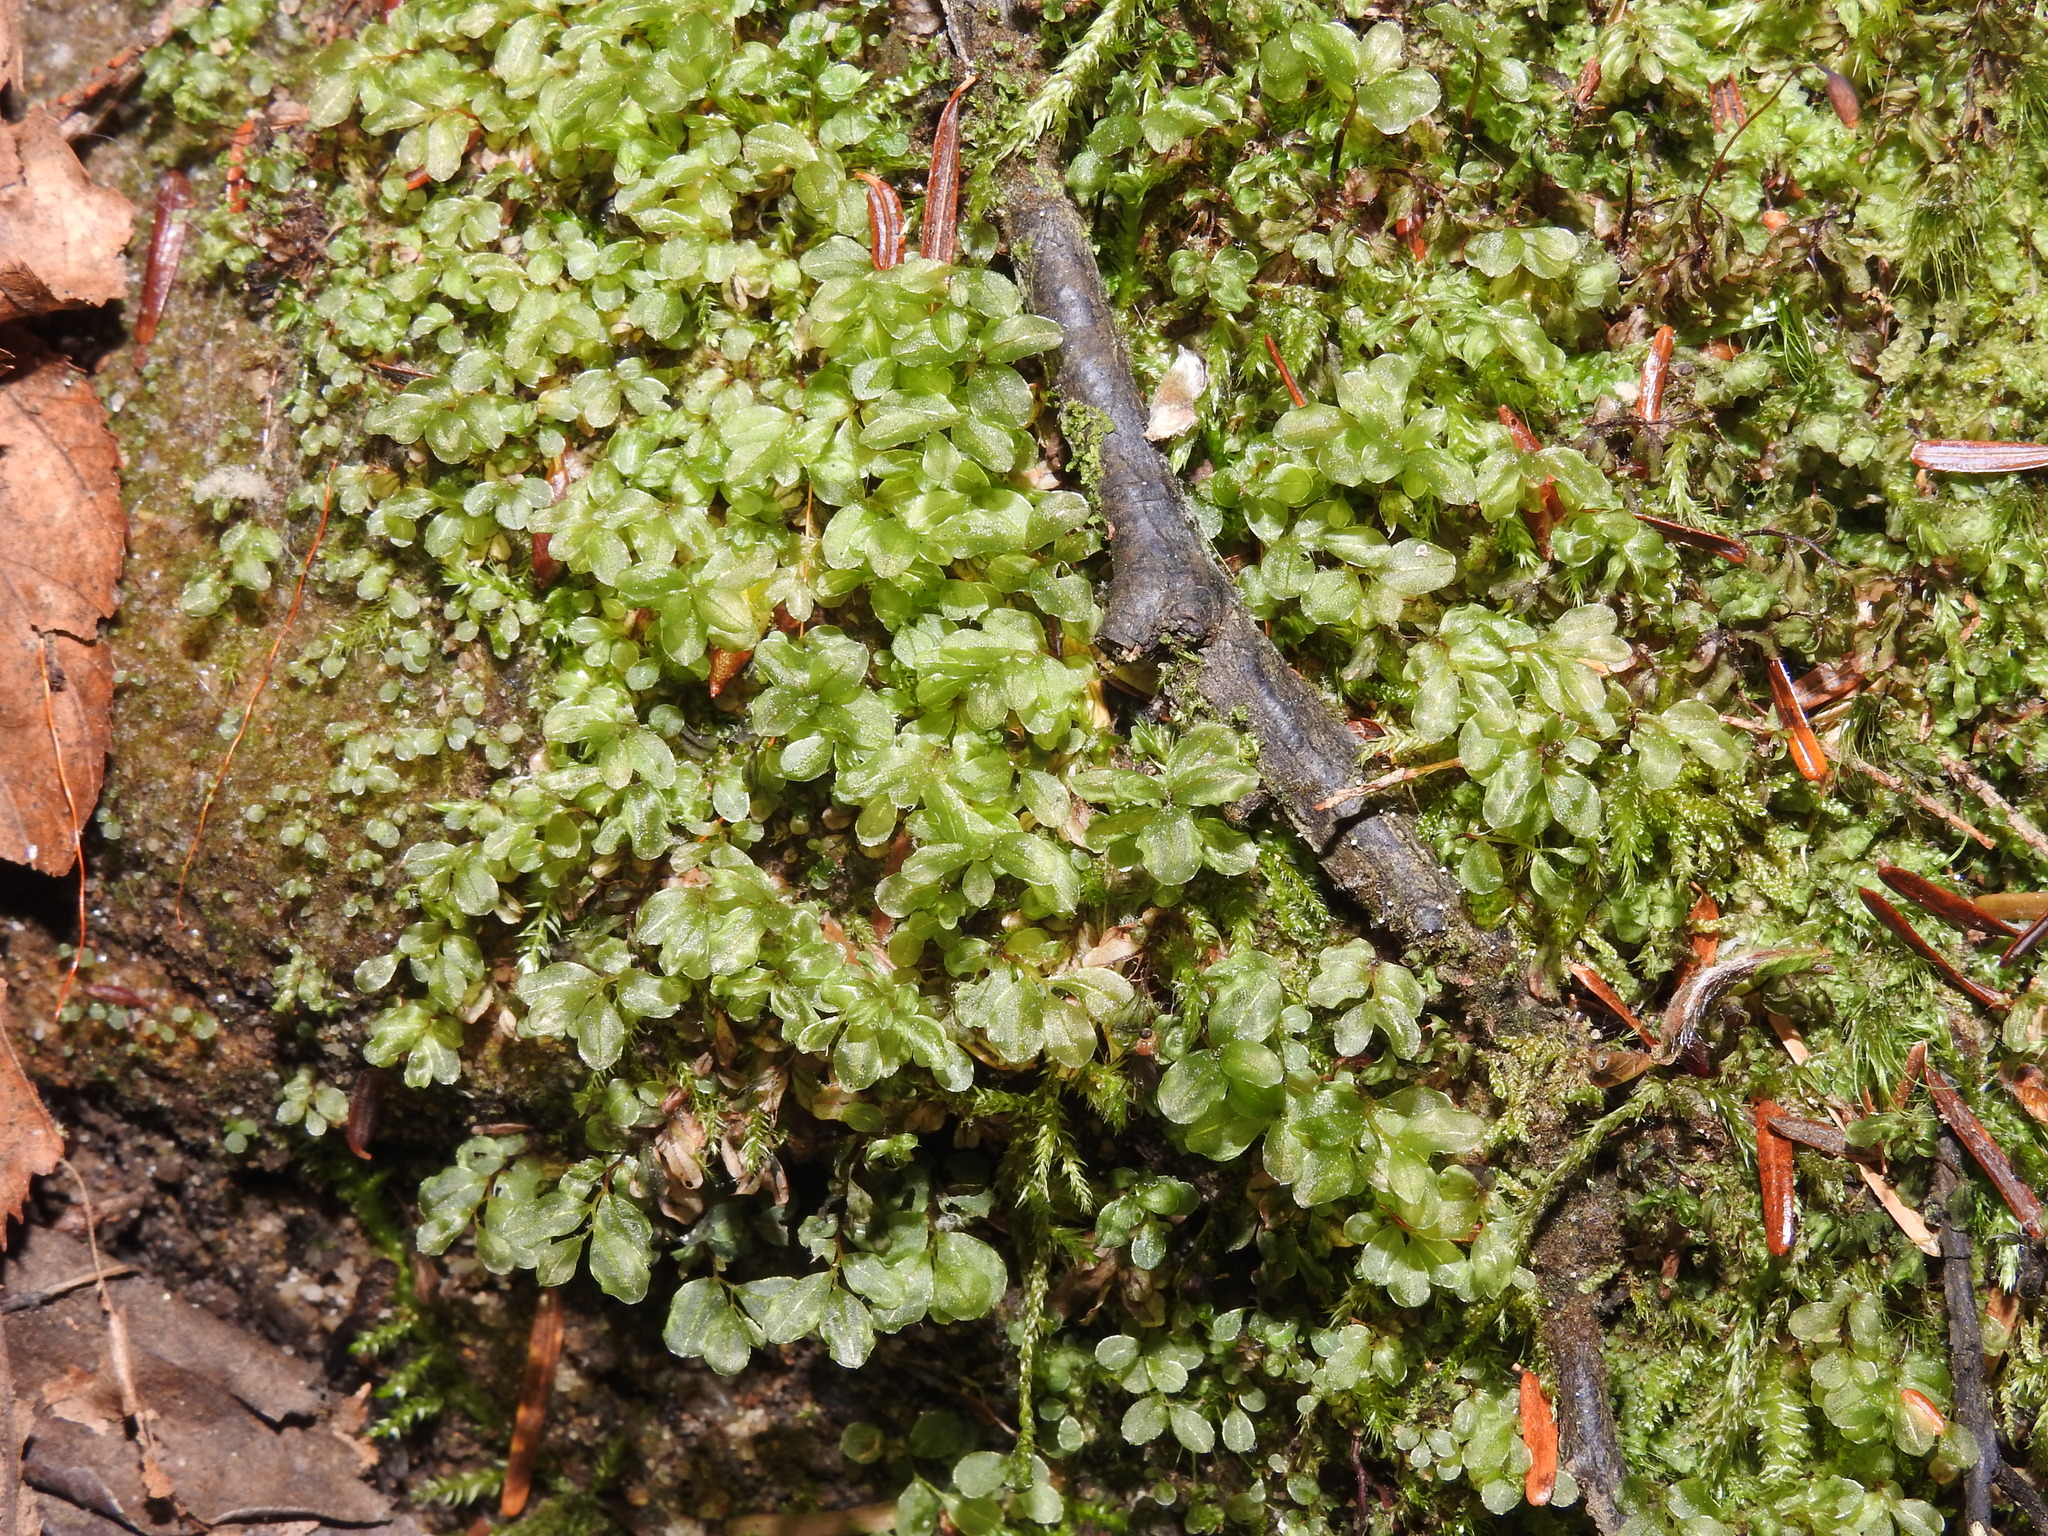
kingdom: Plantae
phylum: Bryophyta
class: Bryopsida
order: Bryales
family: Mniaceae
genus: Rhizomnium
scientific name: Rhizomnium punctatum
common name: Dotted leafy moss
